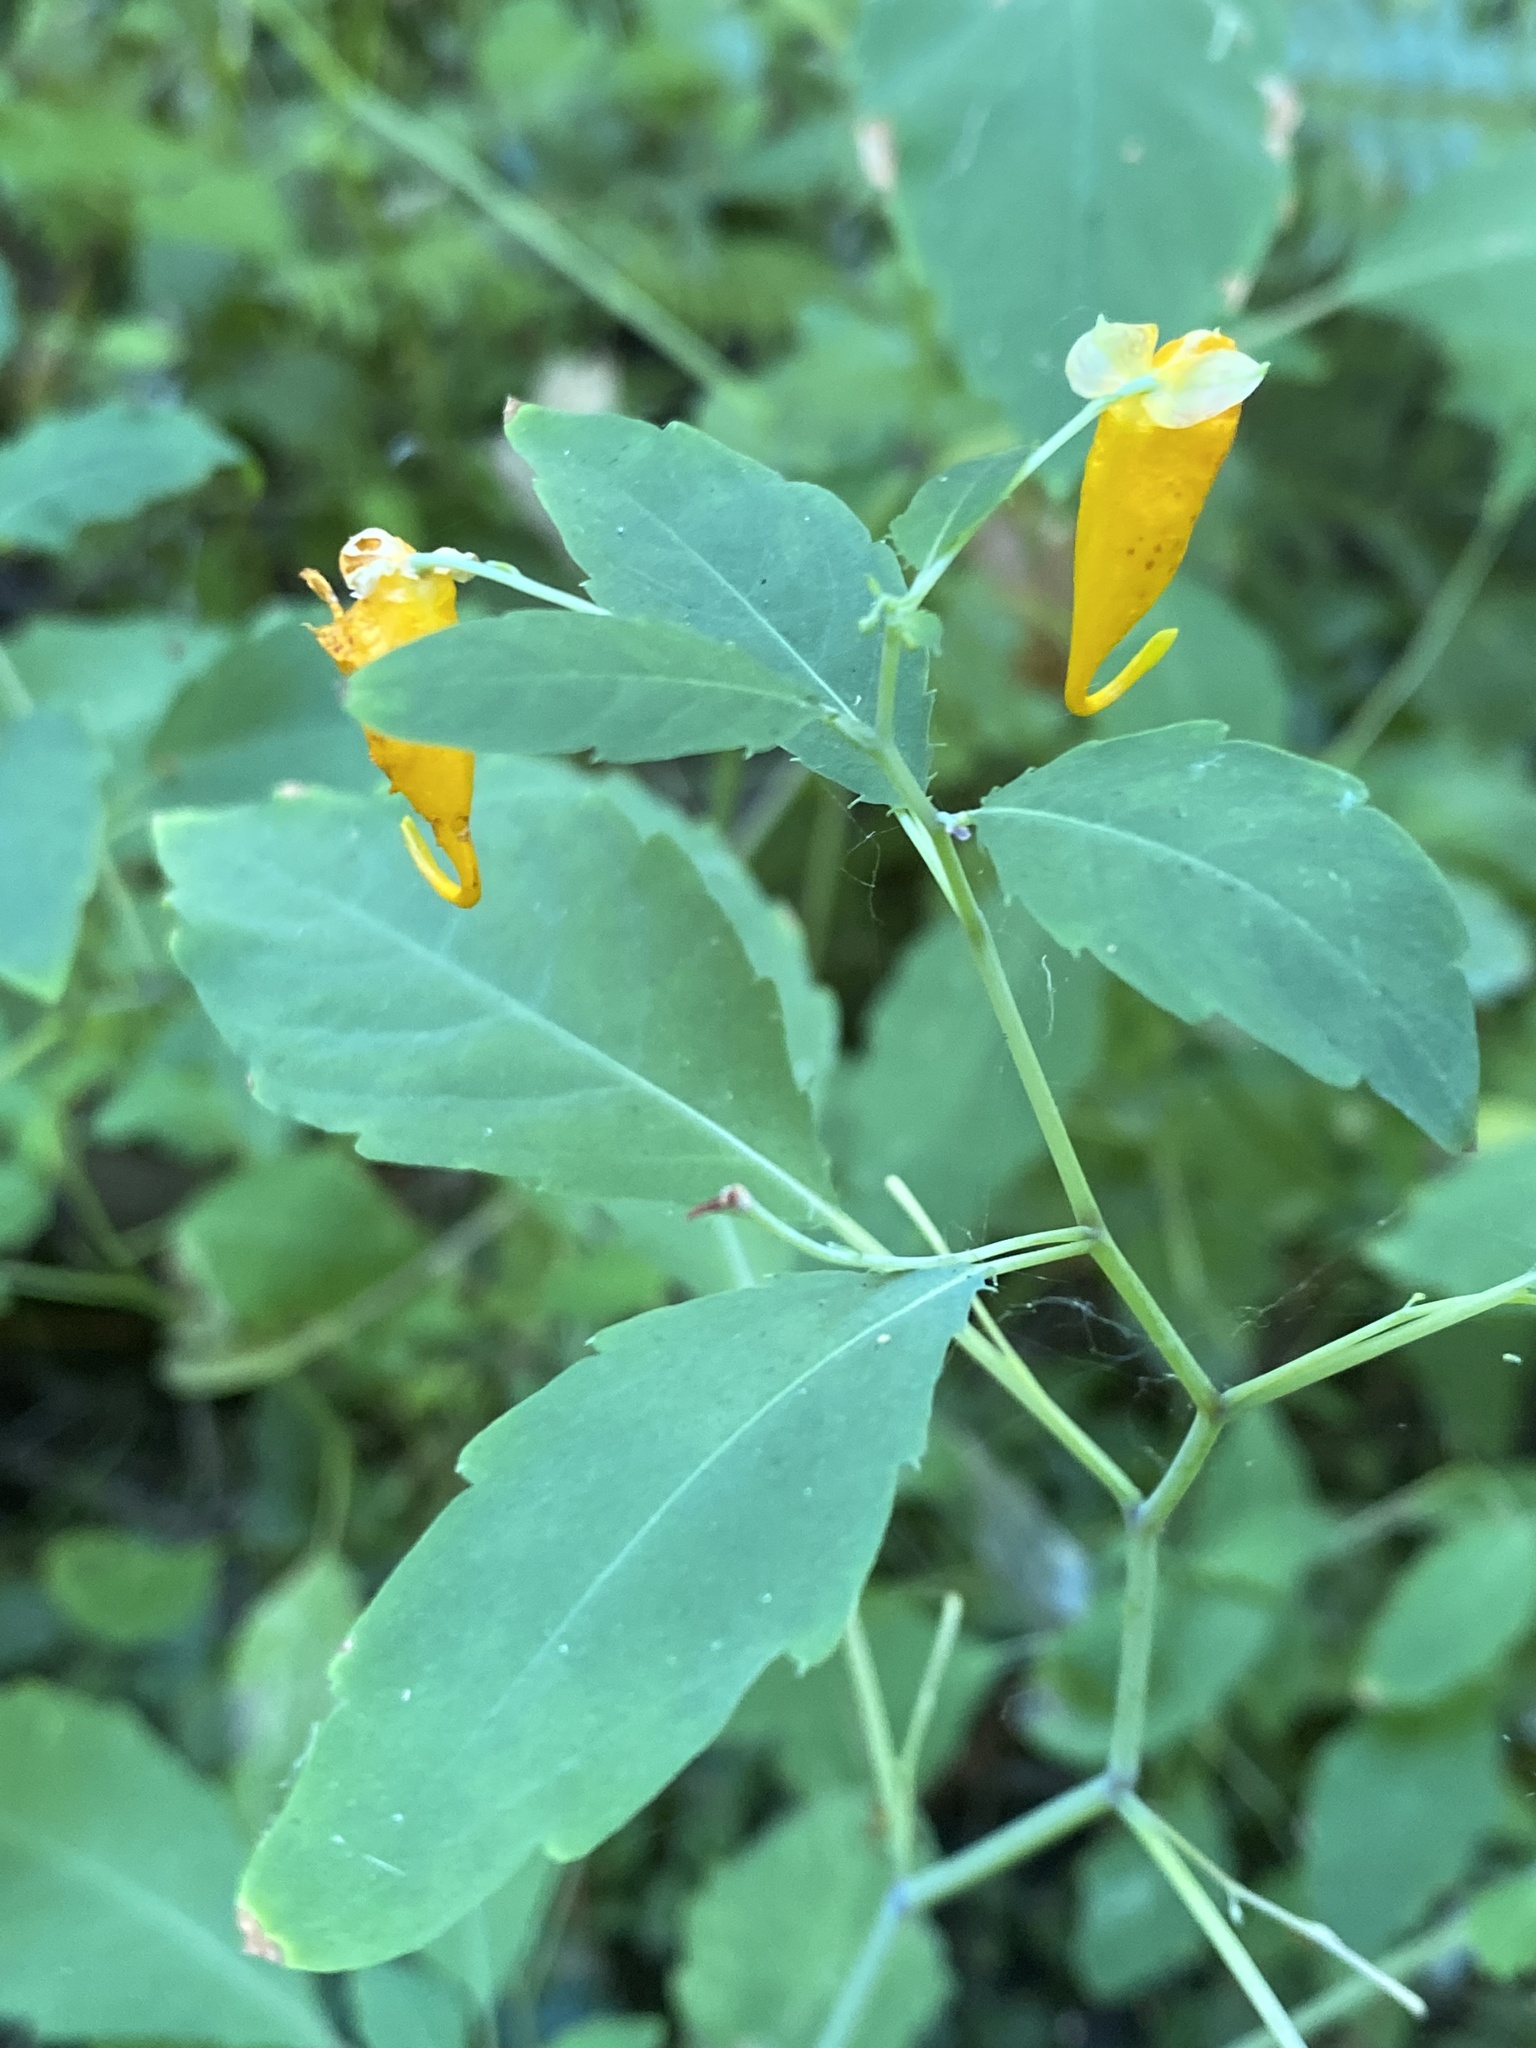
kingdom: Plantae
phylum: Tracheophyta
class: Magnoliopsida
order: Ericales
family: Balsaminaceae
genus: Impatiens
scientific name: Impatiens capensis
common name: Orange balsam
